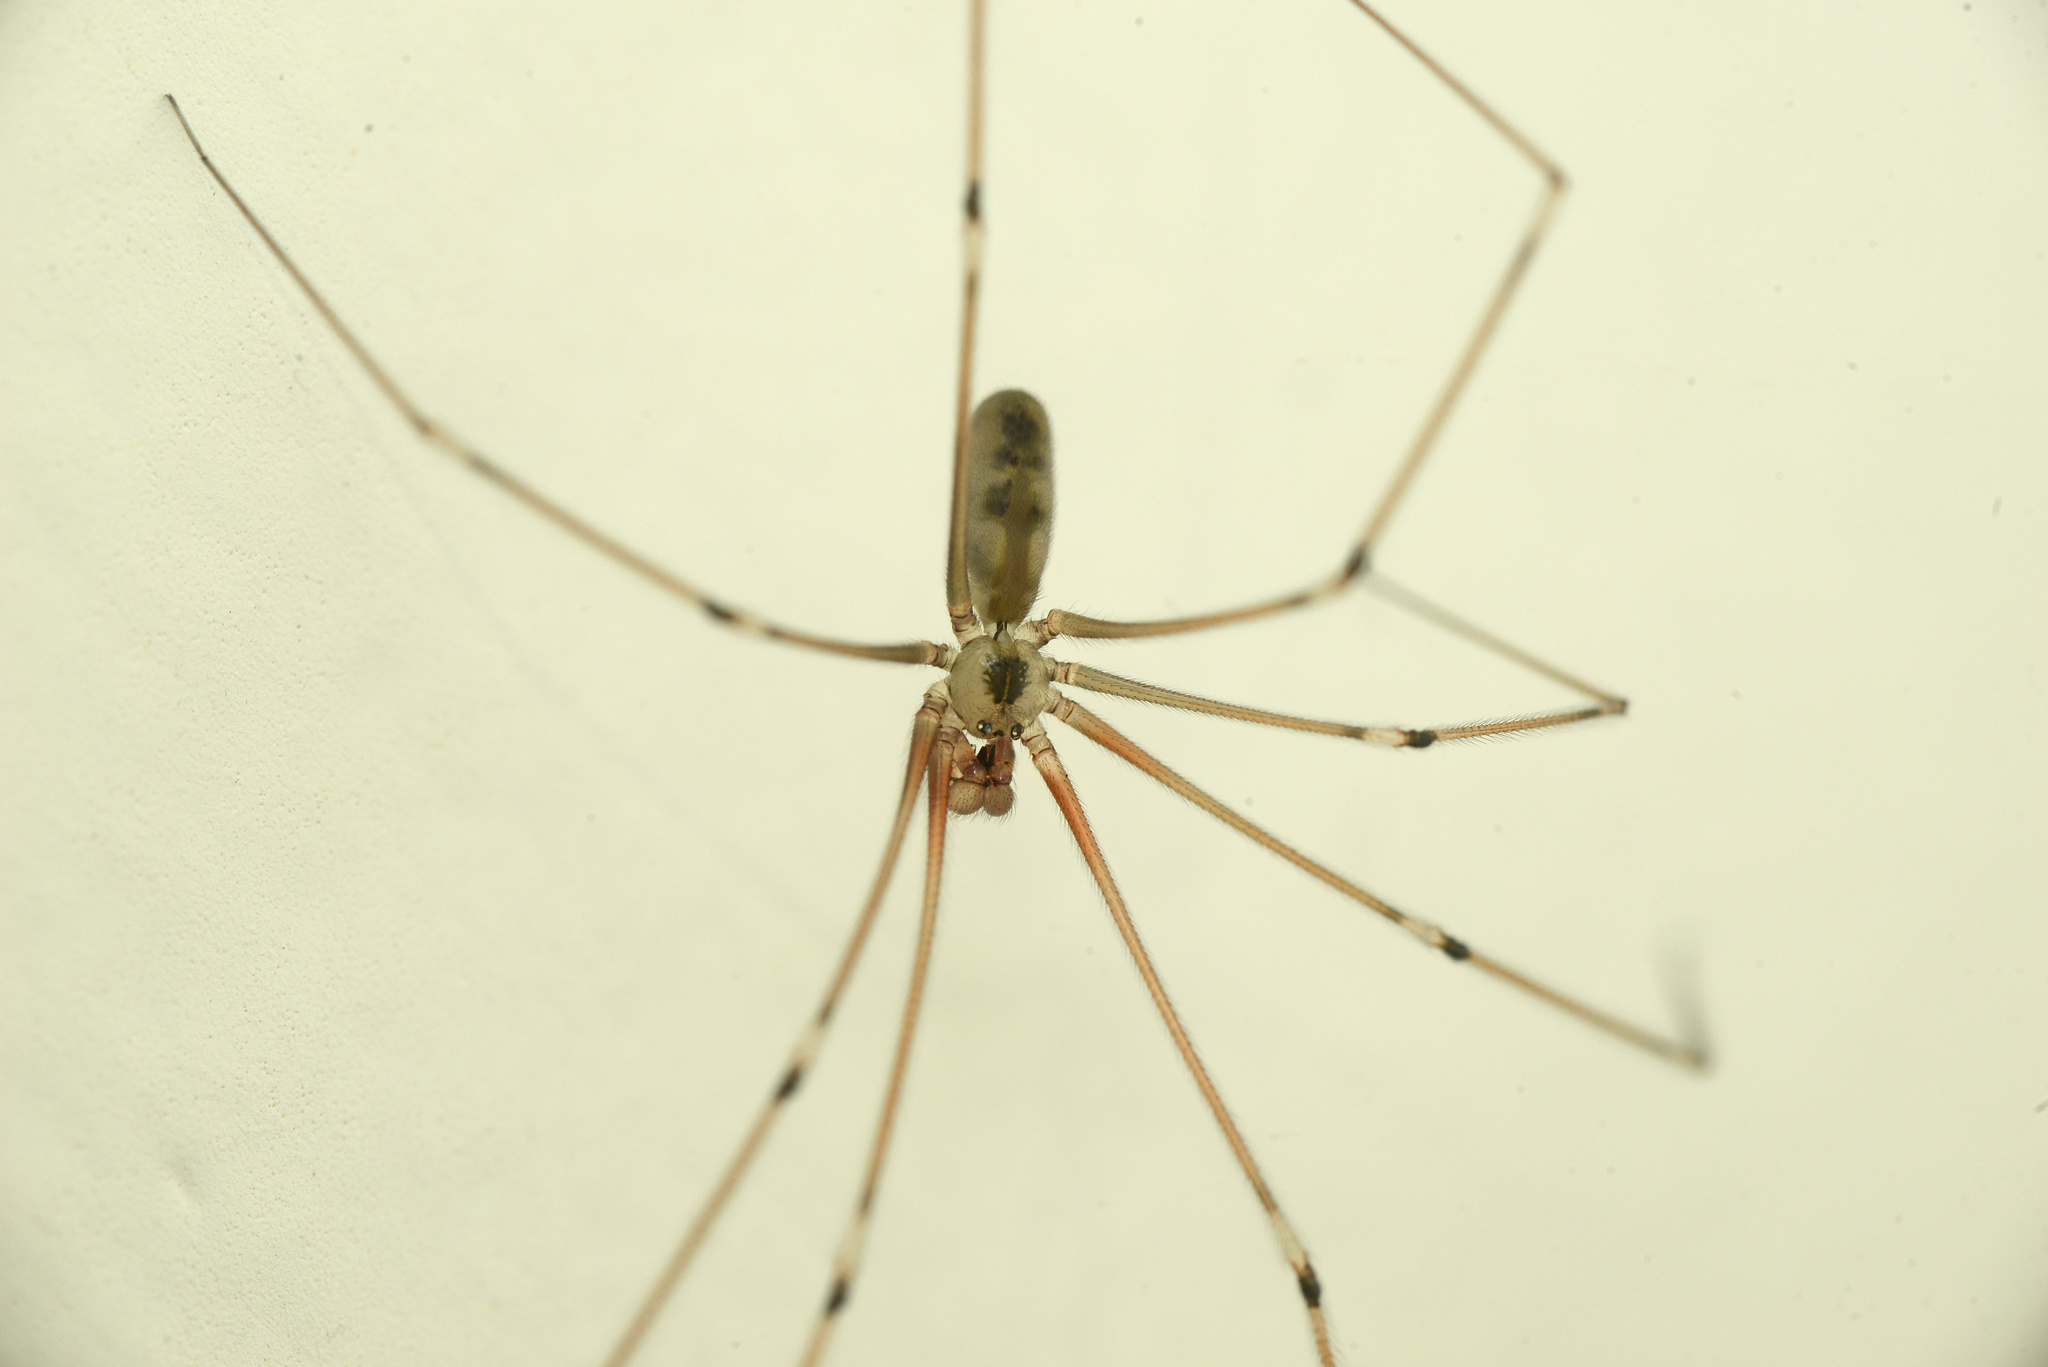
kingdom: Animalia
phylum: Arthropoda
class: Arachnida
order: Araneae
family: Pholcidae
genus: Pholcus
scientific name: Pholcus phalangioides
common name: Longbodied cellar spider
